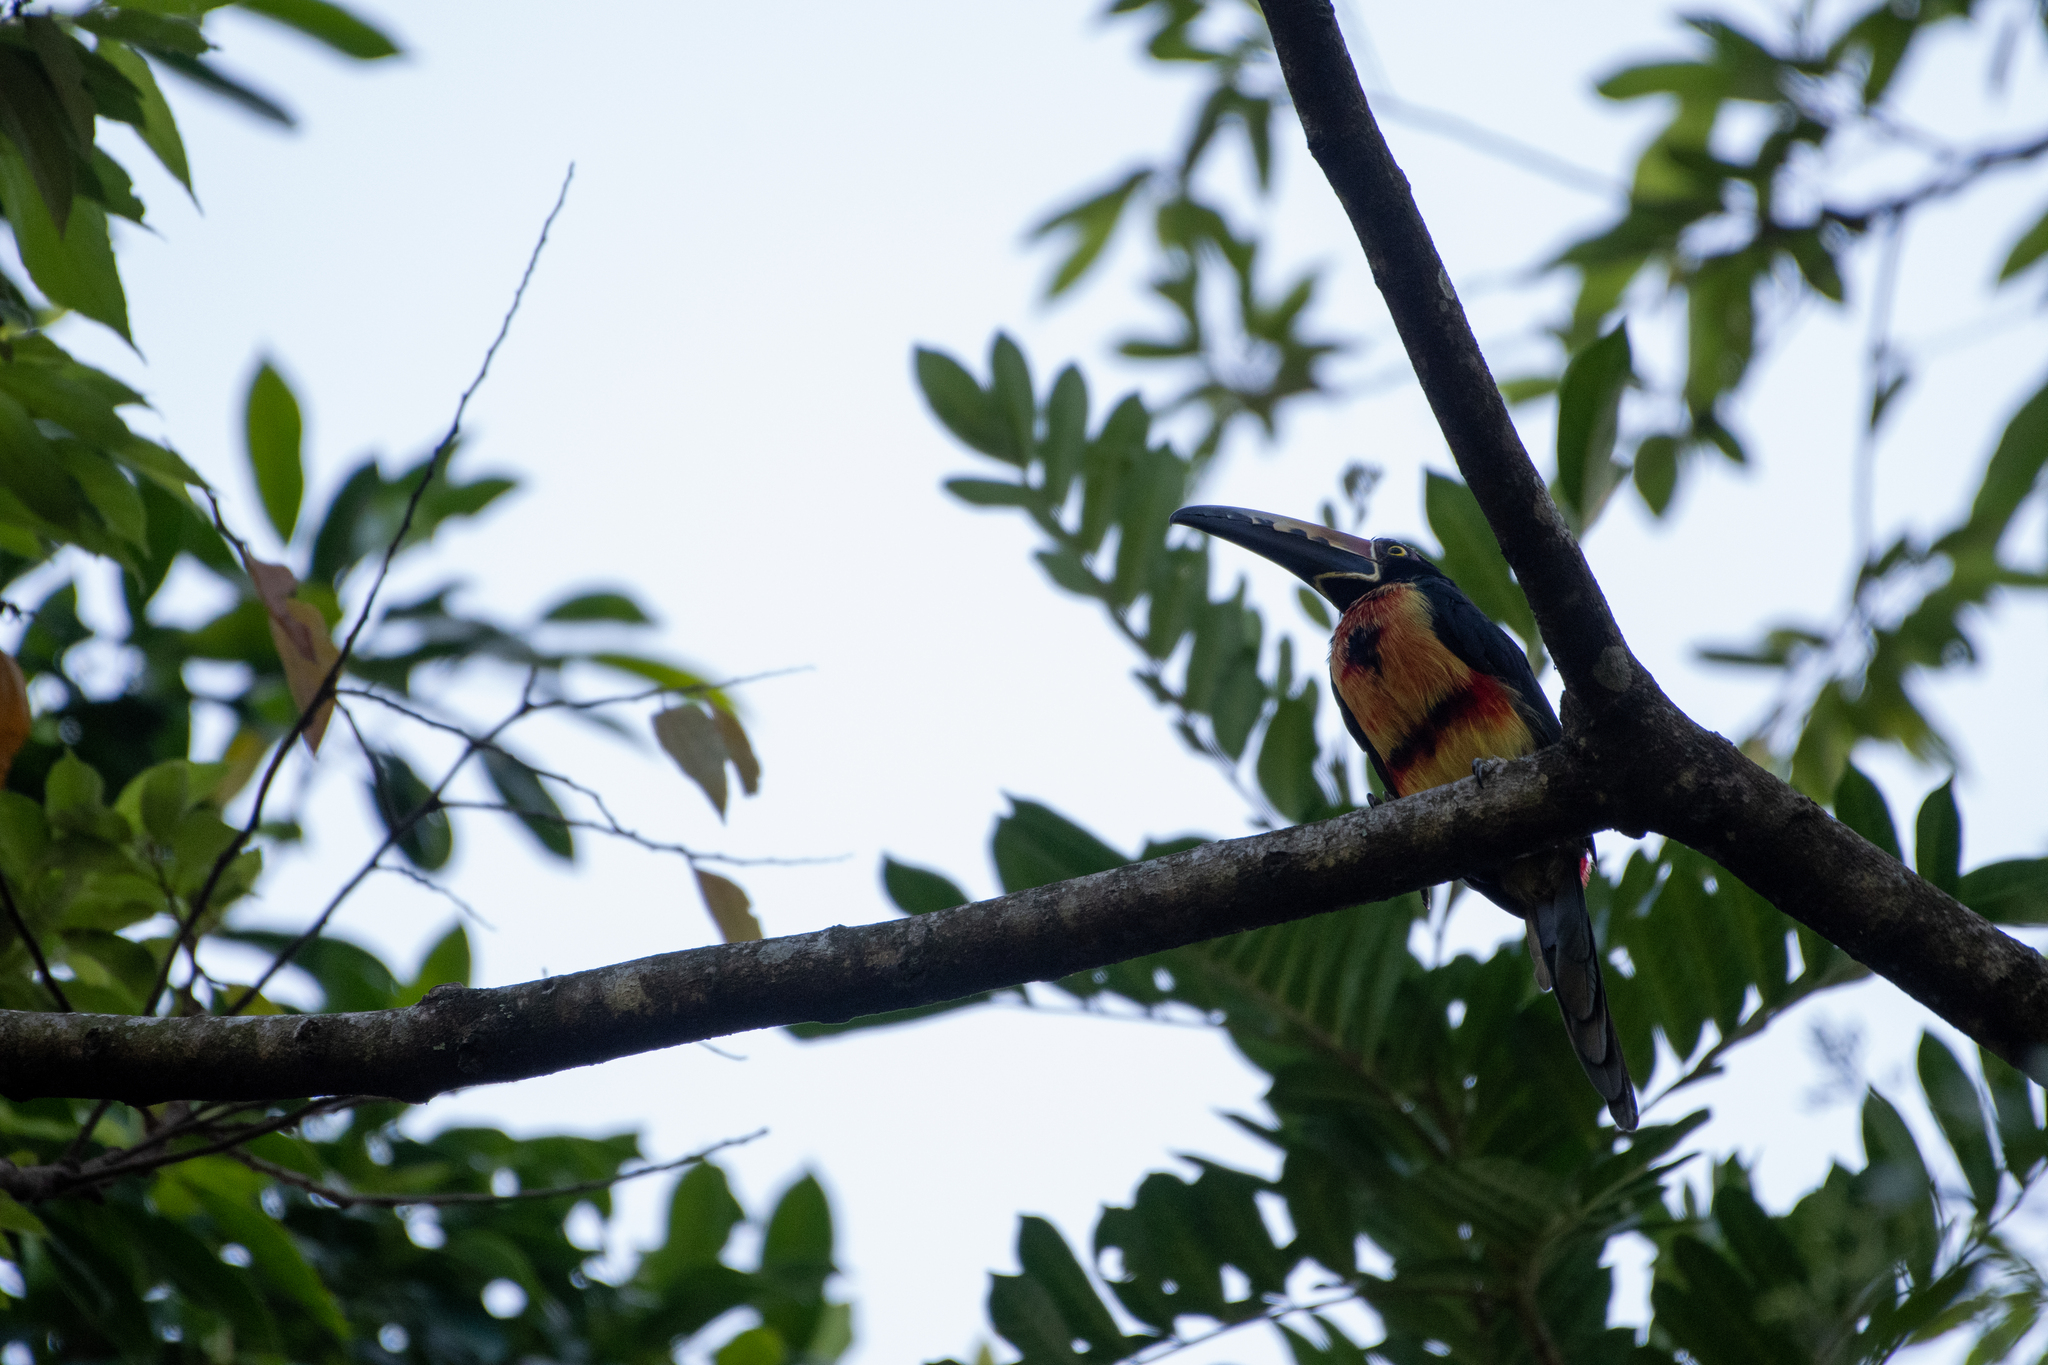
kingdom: Animalia
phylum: Chordata
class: Aves
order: Piciformes
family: Ramphastidae
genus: Pteroglossus
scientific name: Pteroglossus torquatus
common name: Collared aracari
